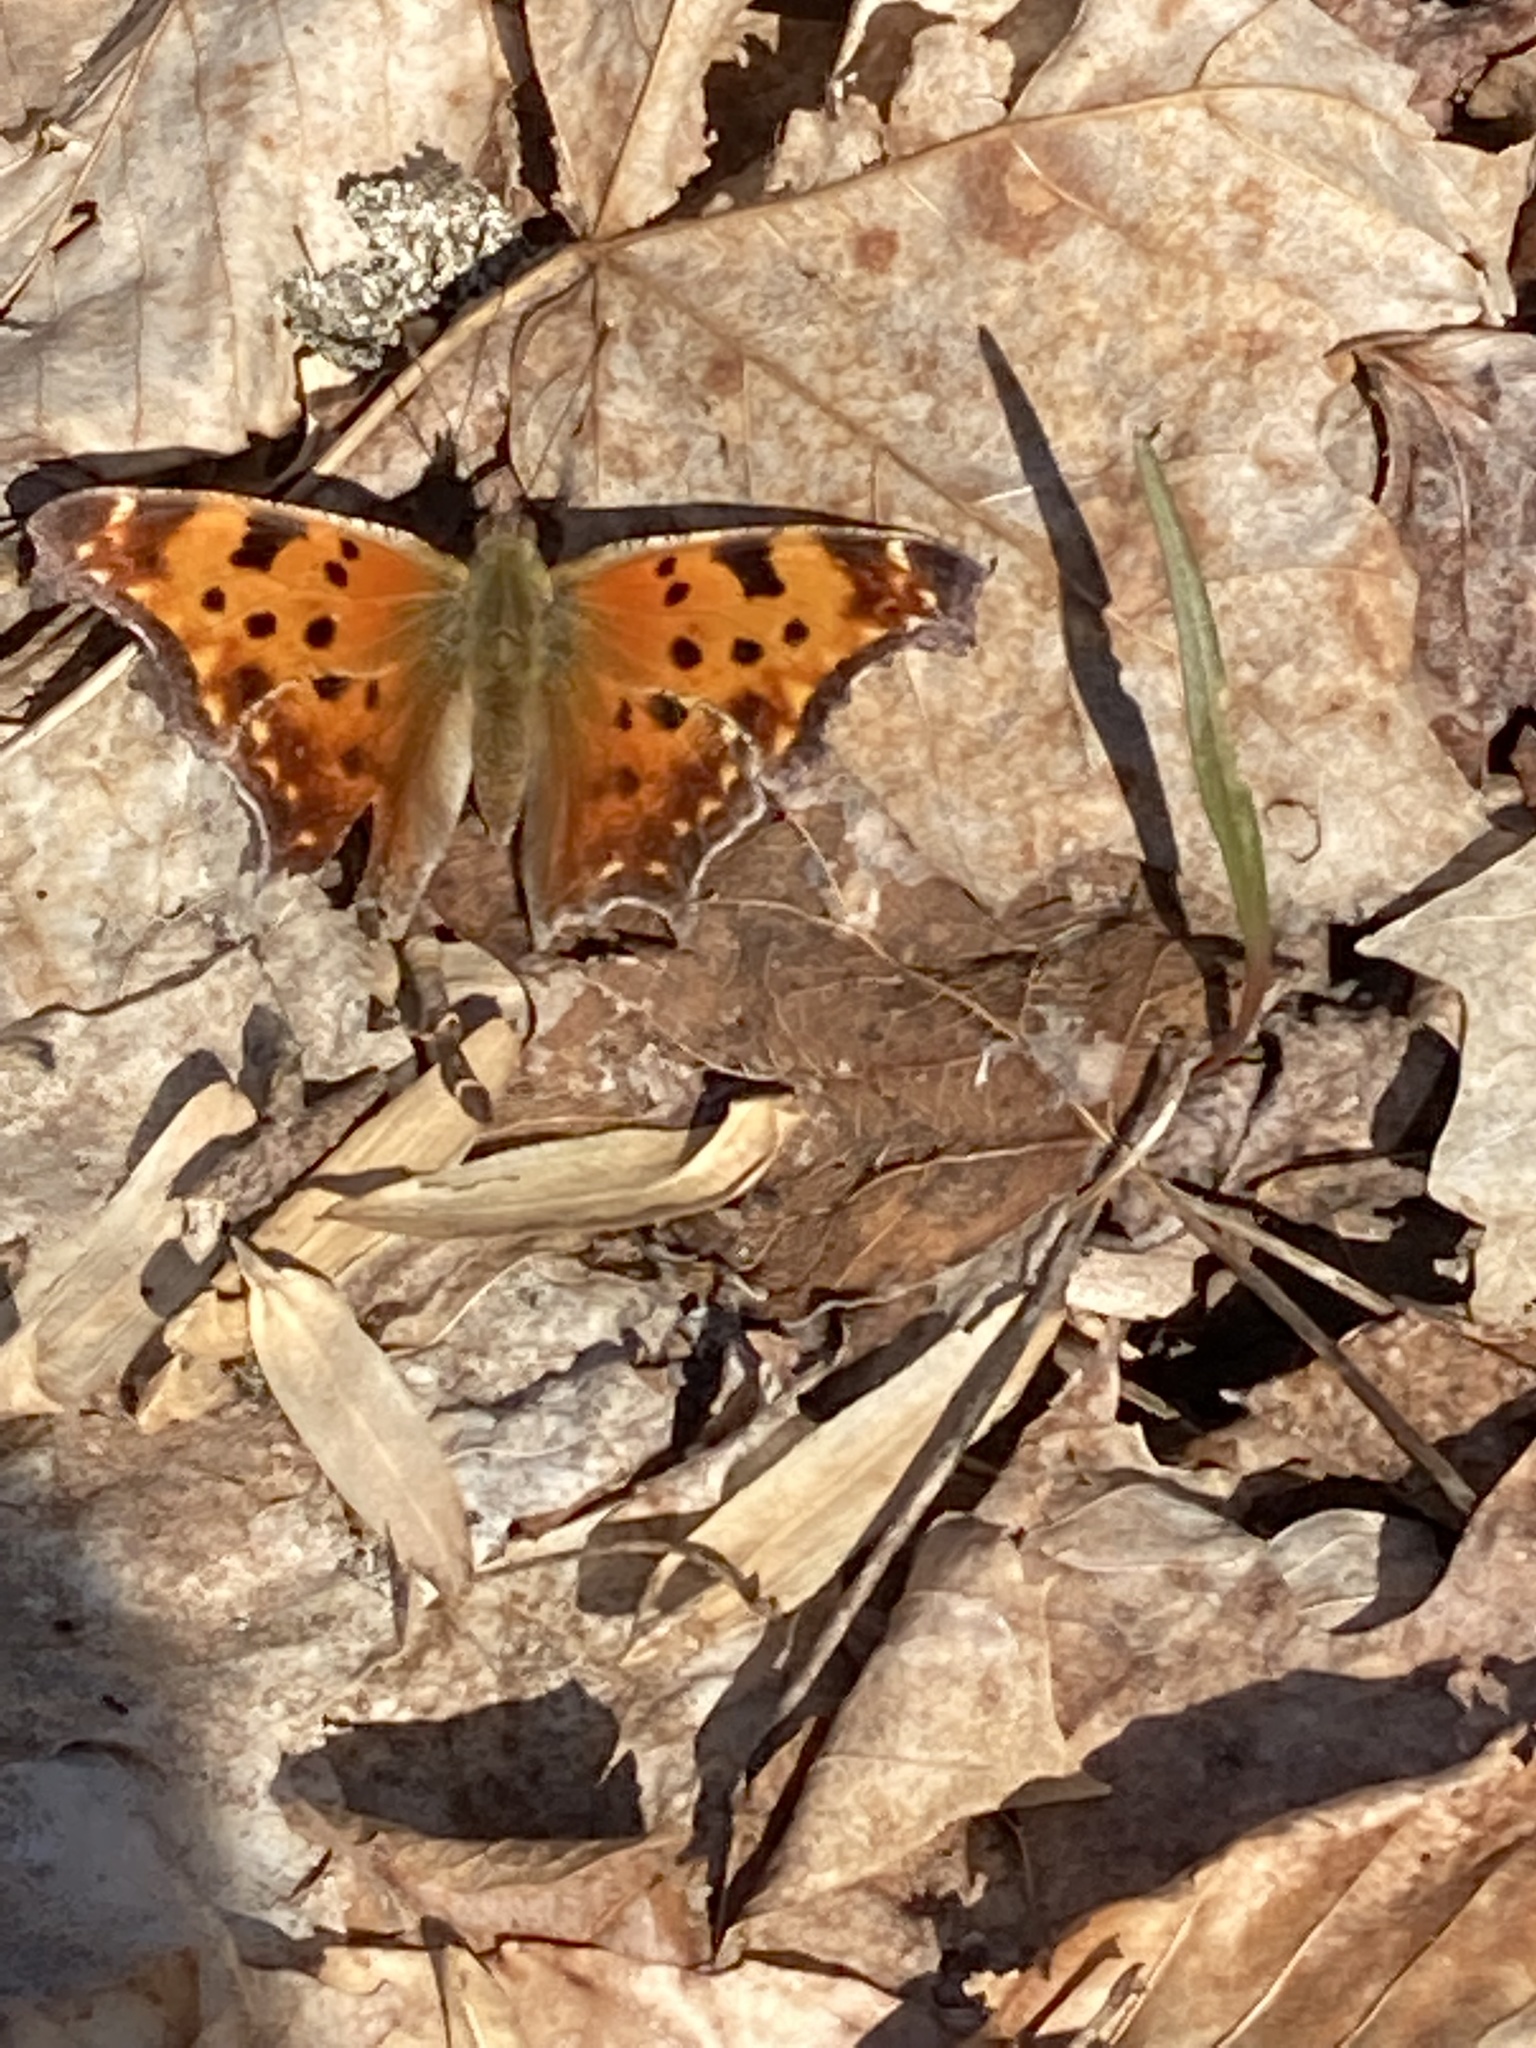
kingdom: Animalia
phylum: Arthropoda
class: Insecta
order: Lepidoptera
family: Nymphalidae
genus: Polygonia
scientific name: Polygonia comma
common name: Eastern comma
